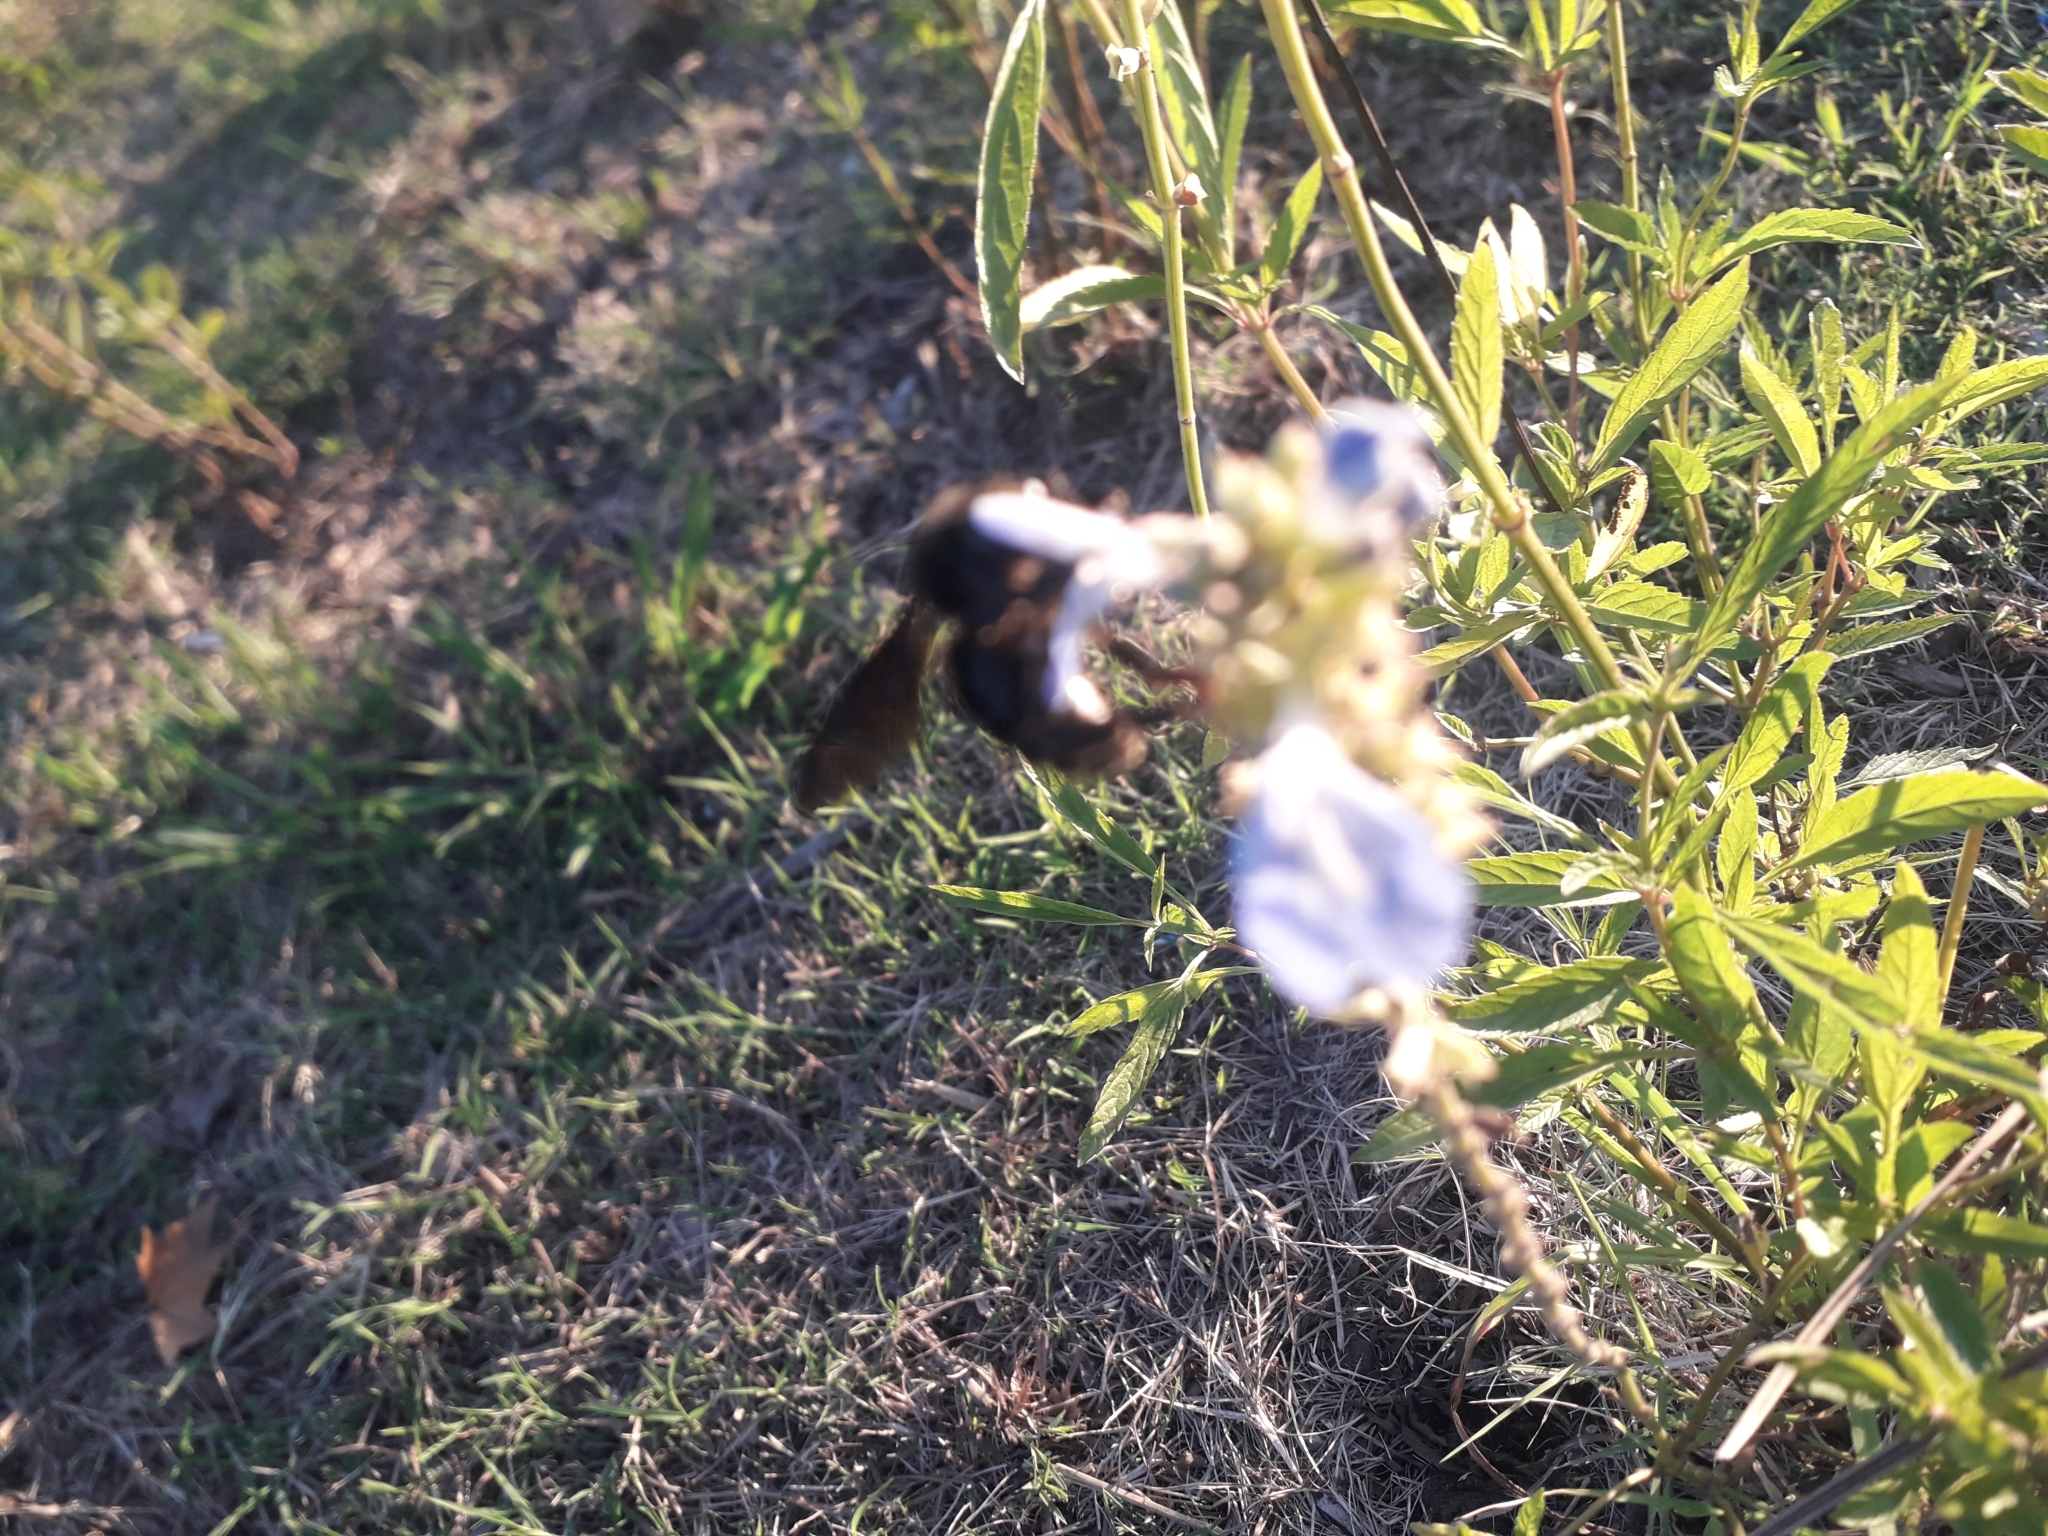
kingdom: Animalia
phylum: Arthropoda
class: Insecta
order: Hymenoptera
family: Apidae
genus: Bombus
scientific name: Bombus pauloensis
